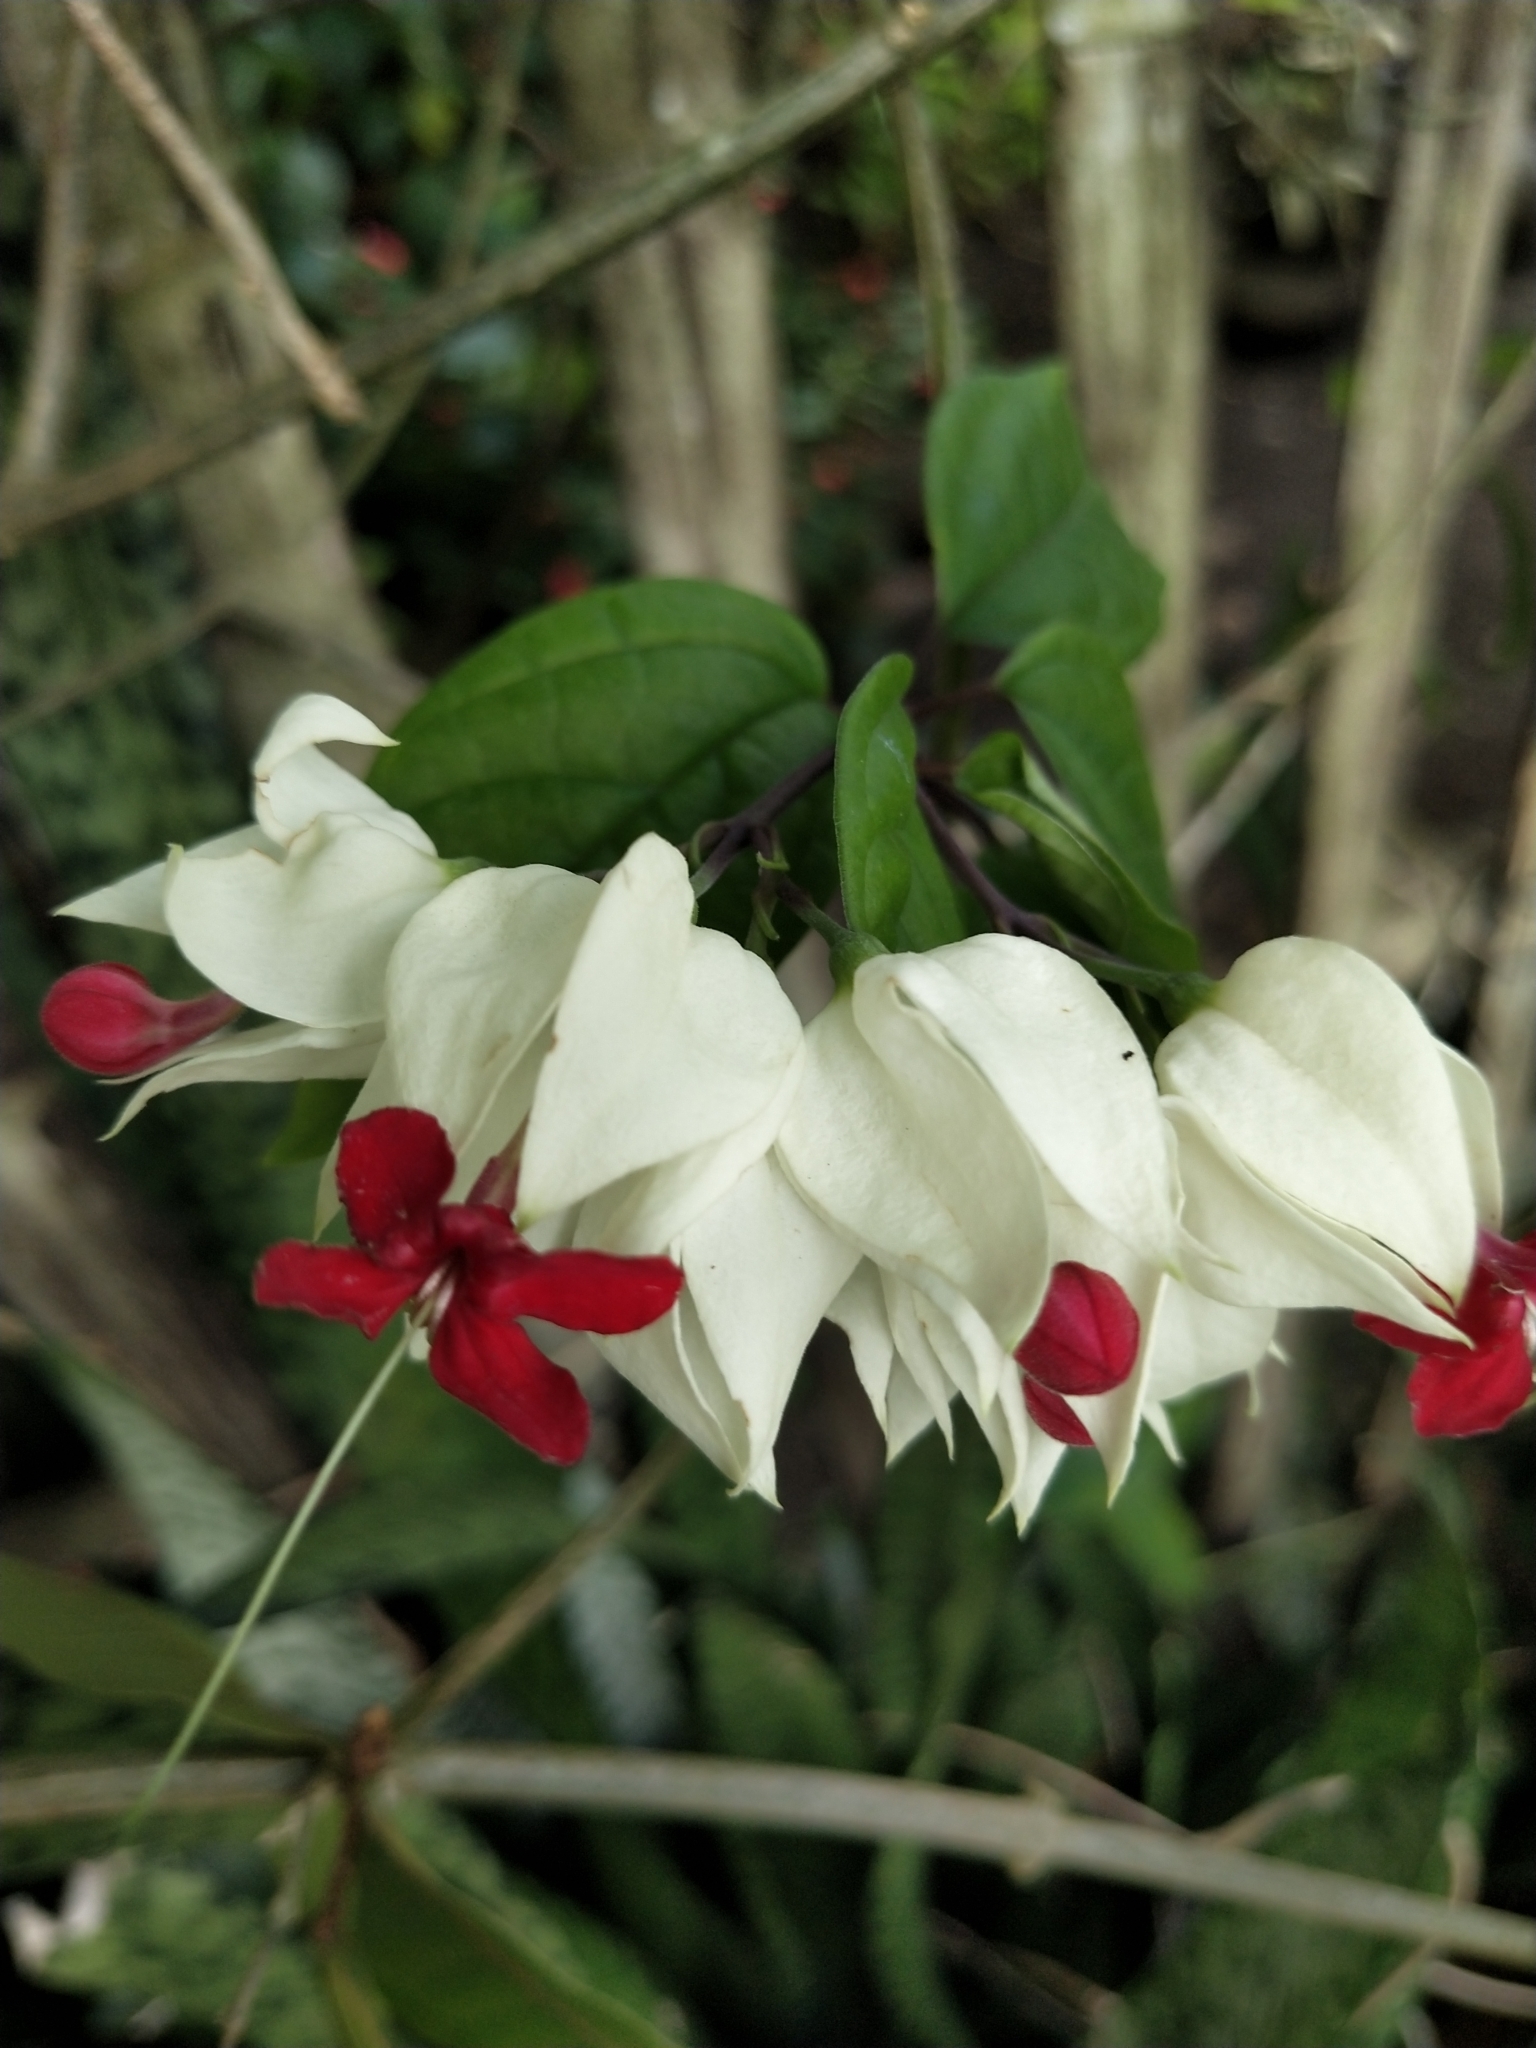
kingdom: Plantae
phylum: Tracheophyta
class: Magnoliopsida
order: Lamiales
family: Lamiaceae
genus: Clerodendrum
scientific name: Clerodendrum thomsoniae
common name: Bagflower
